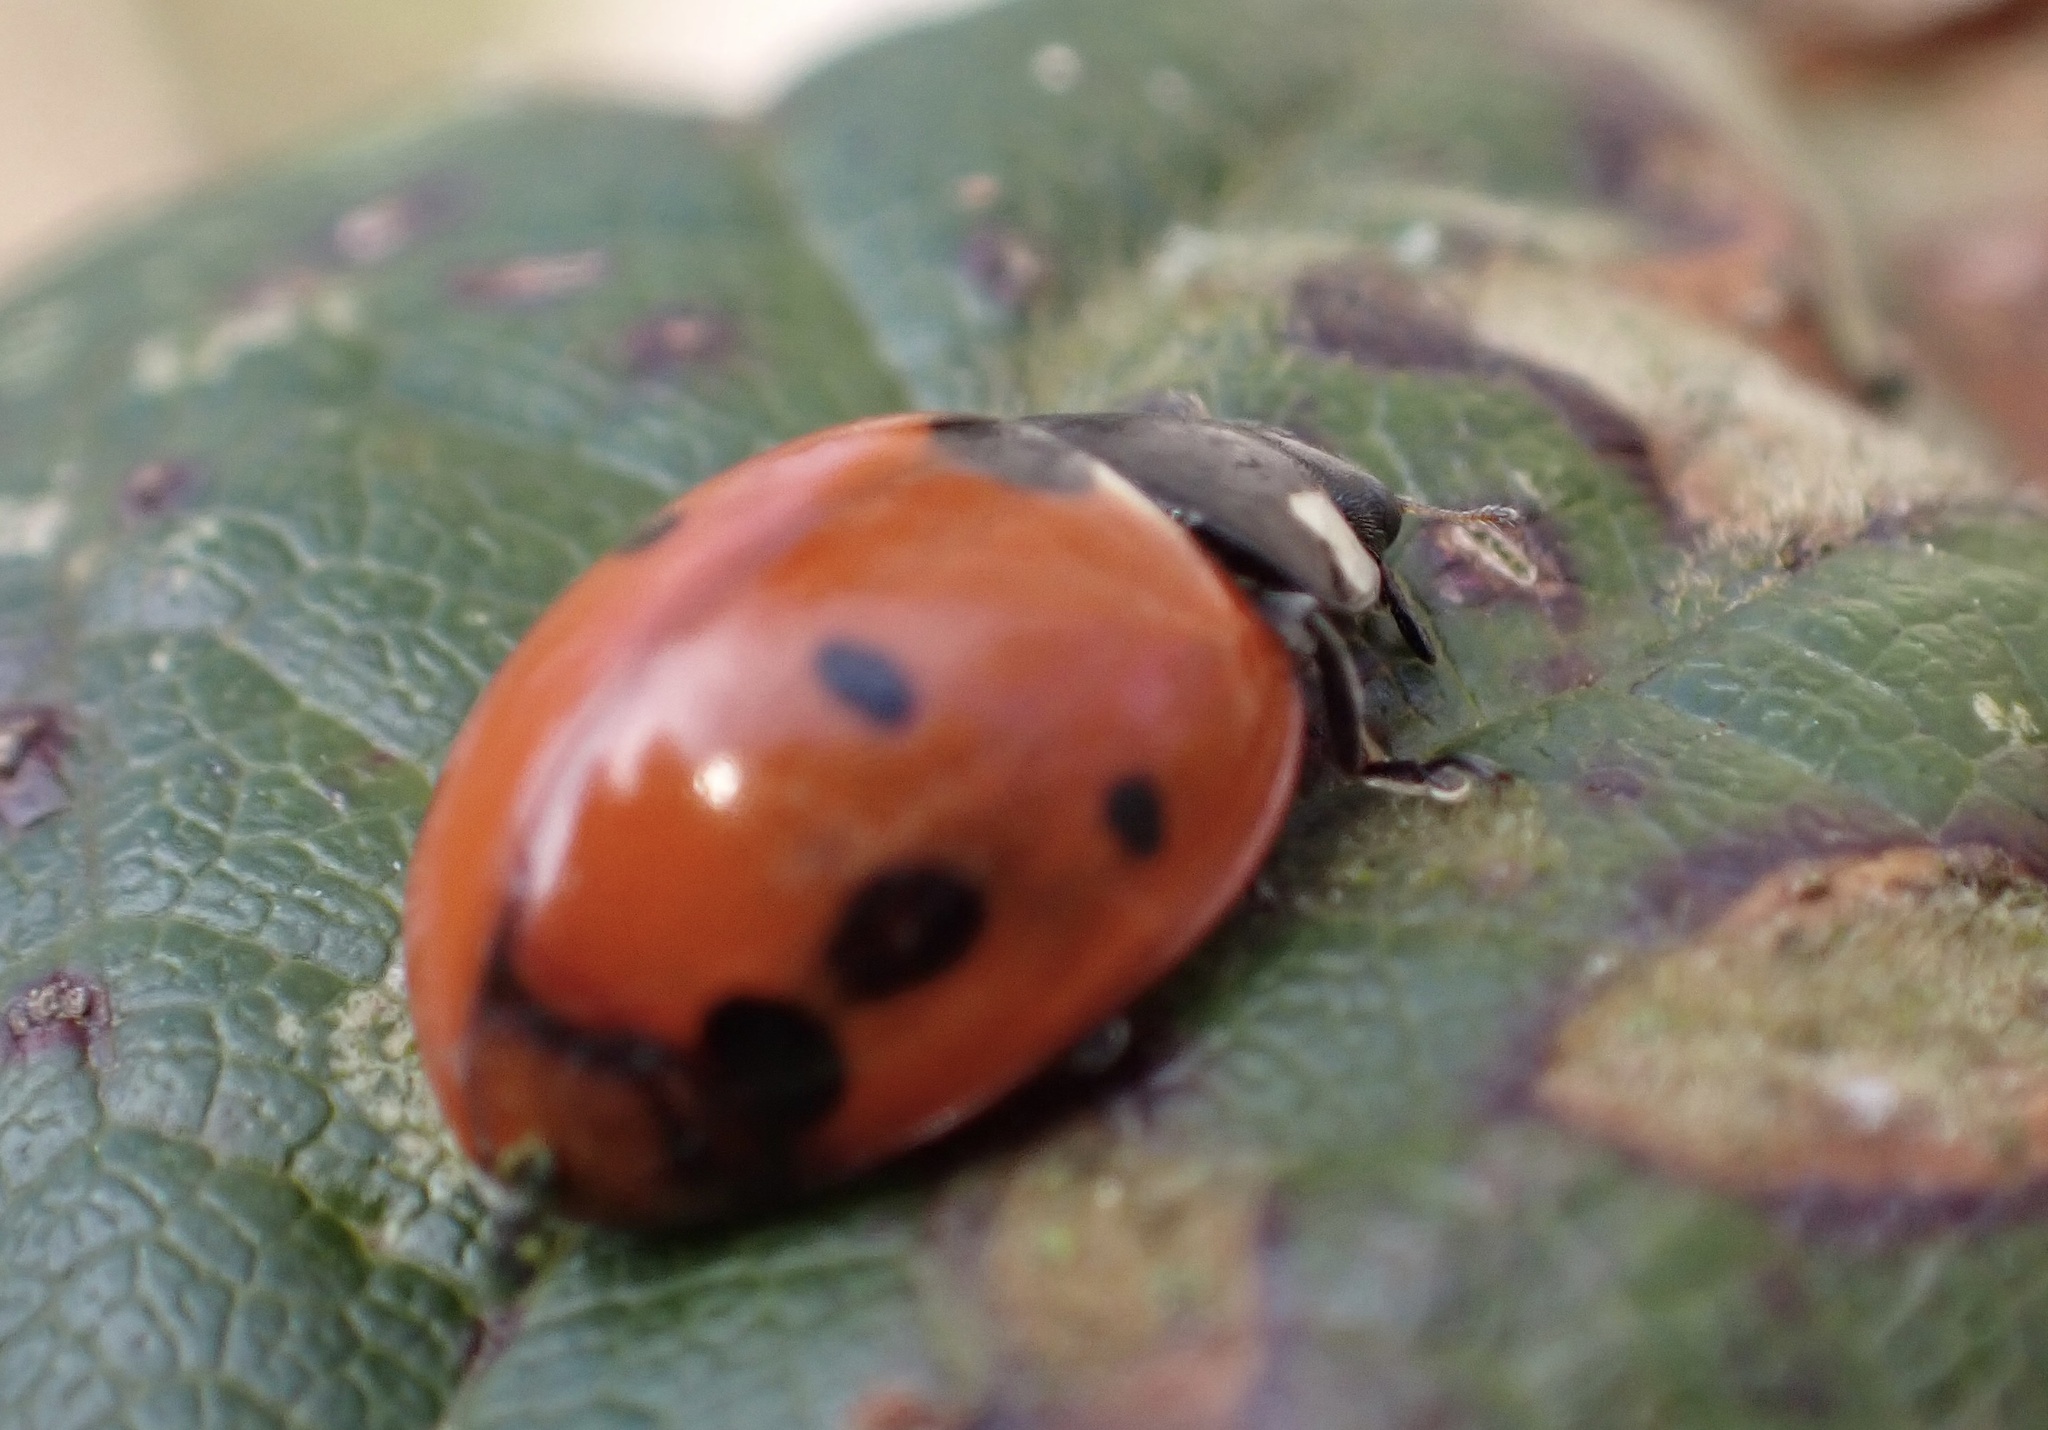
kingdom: Animalia
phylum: Arthropoda
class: Insecta
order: Coleoptera
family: Coccinellidae
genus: Coccinella
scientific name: Coccinella septempunctata
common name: Sevenspotted lady beetle
